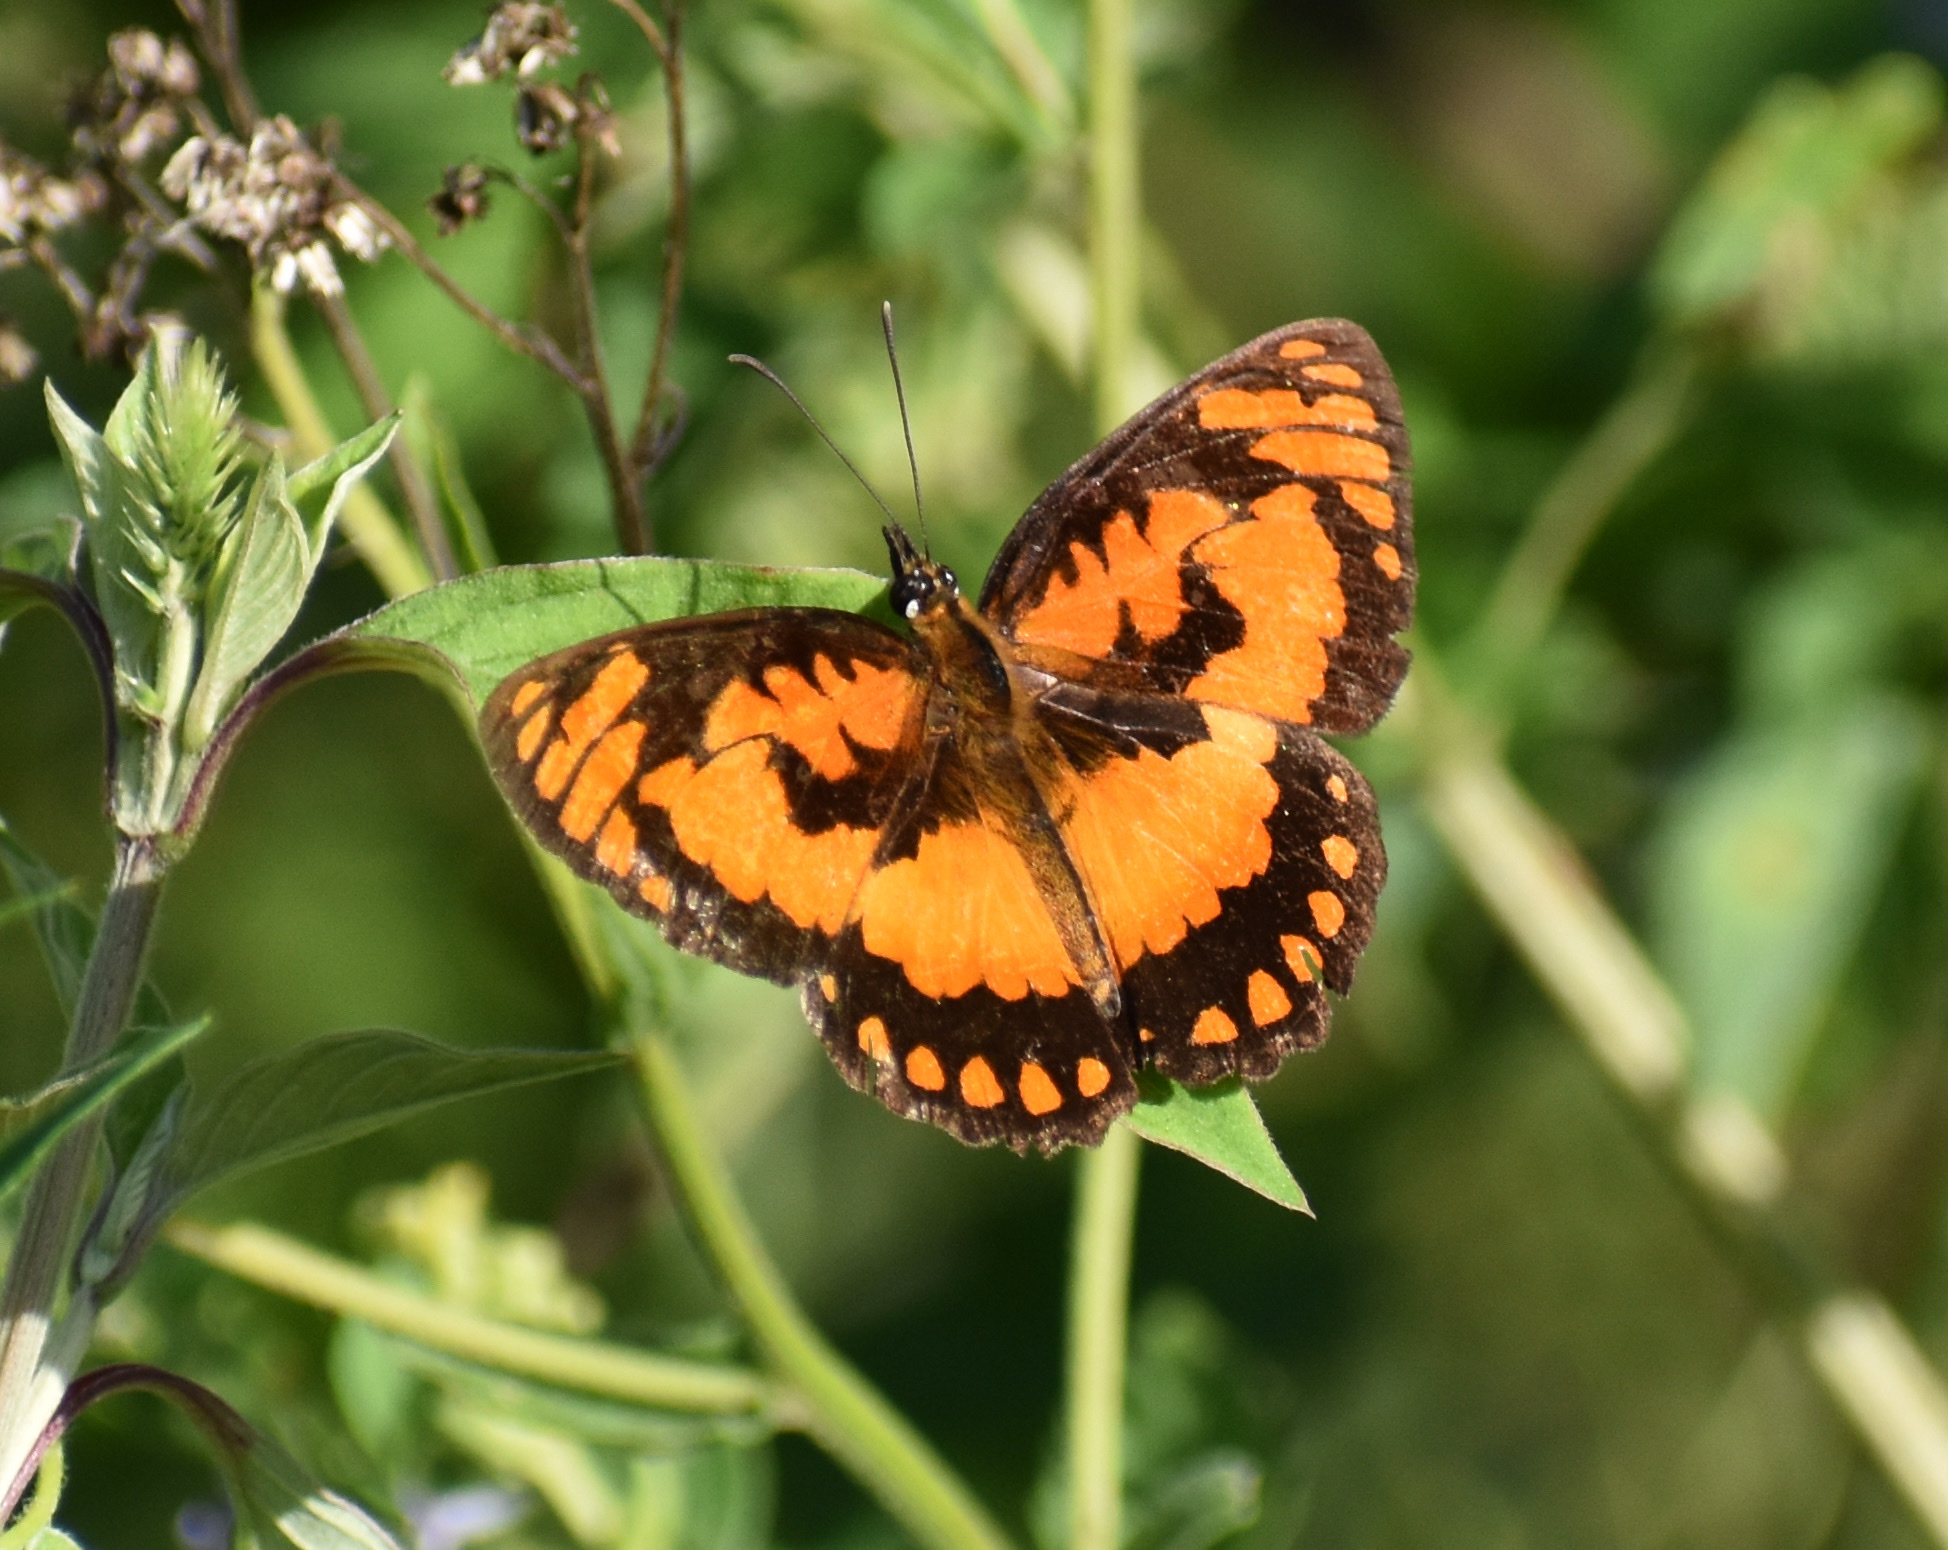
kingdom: Animalia
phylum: Arthropoda
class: Insecta
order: Lepidoptera
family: Nymphalidae
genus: Byblia
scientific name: Byblia acheloia
